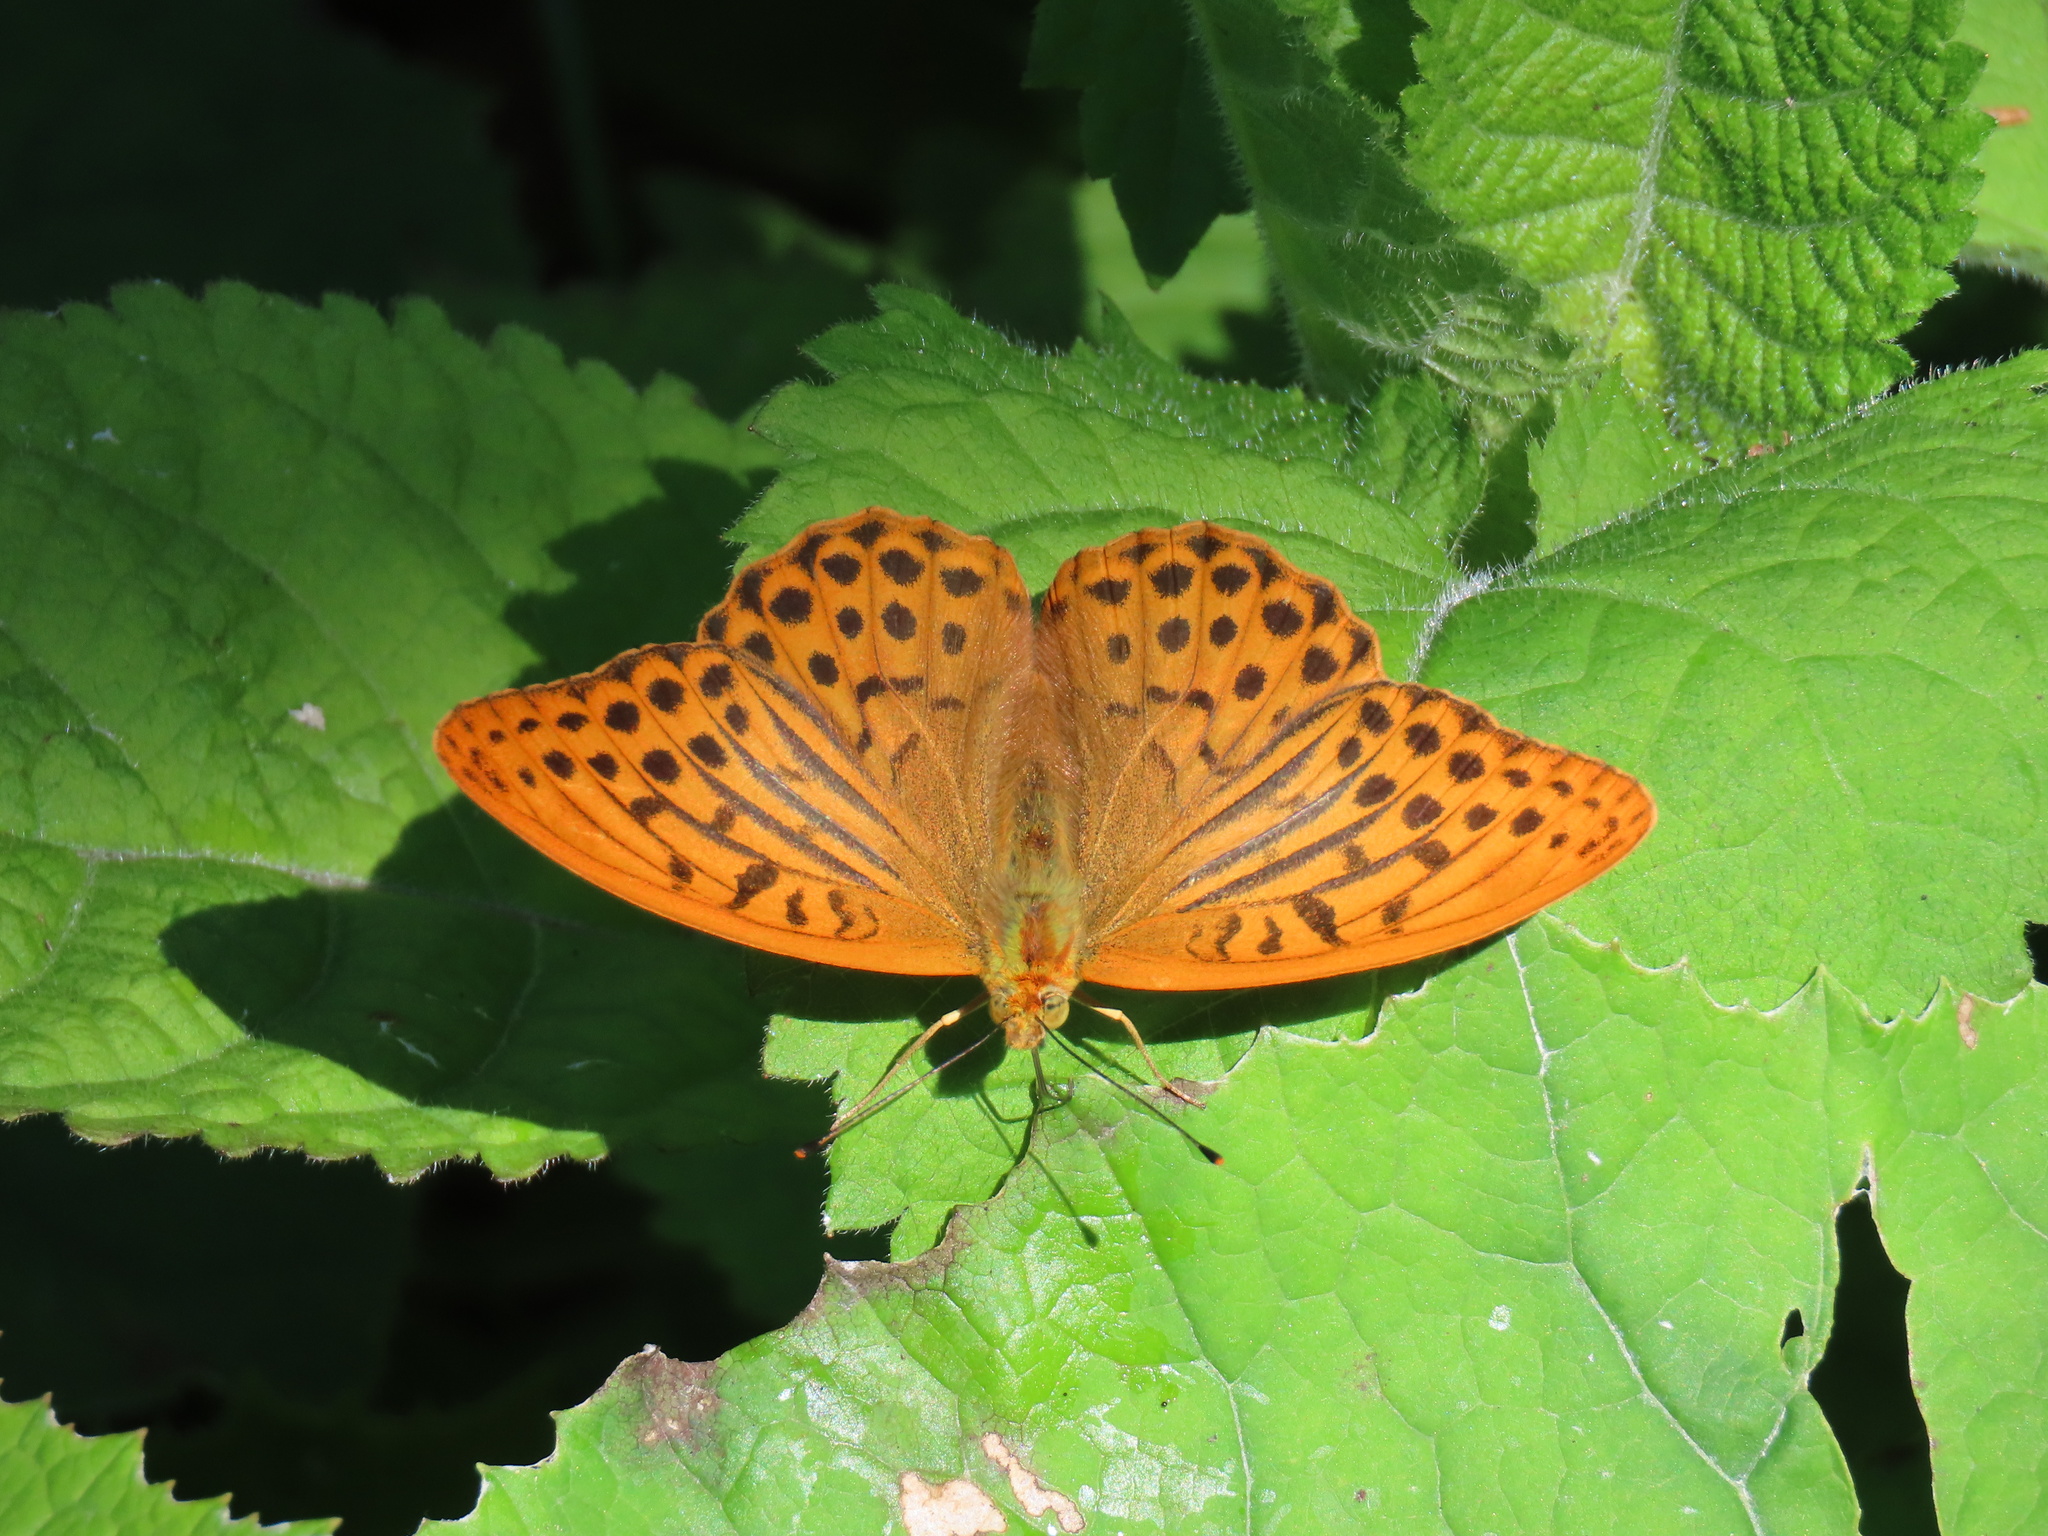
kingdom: Animalia
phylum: Arthropoda
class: Insecta
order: Lepidoptera
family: Nymphalidae
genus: Argynnis
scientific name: Argynnis paphia
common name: Silver-washed fritillary
